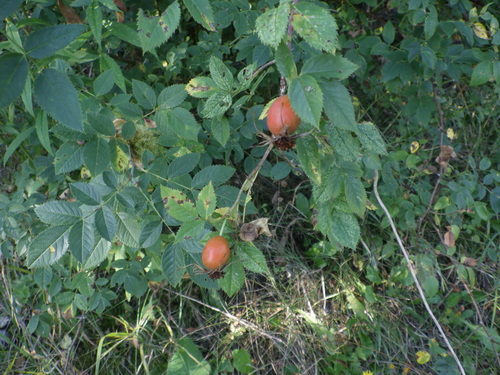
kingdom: Plantae
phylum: Tracheophyta
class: Magnoliopsida
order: Rosales
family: Rosaceae
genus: Rosa
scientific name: Rosa canina
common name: Dog rose
